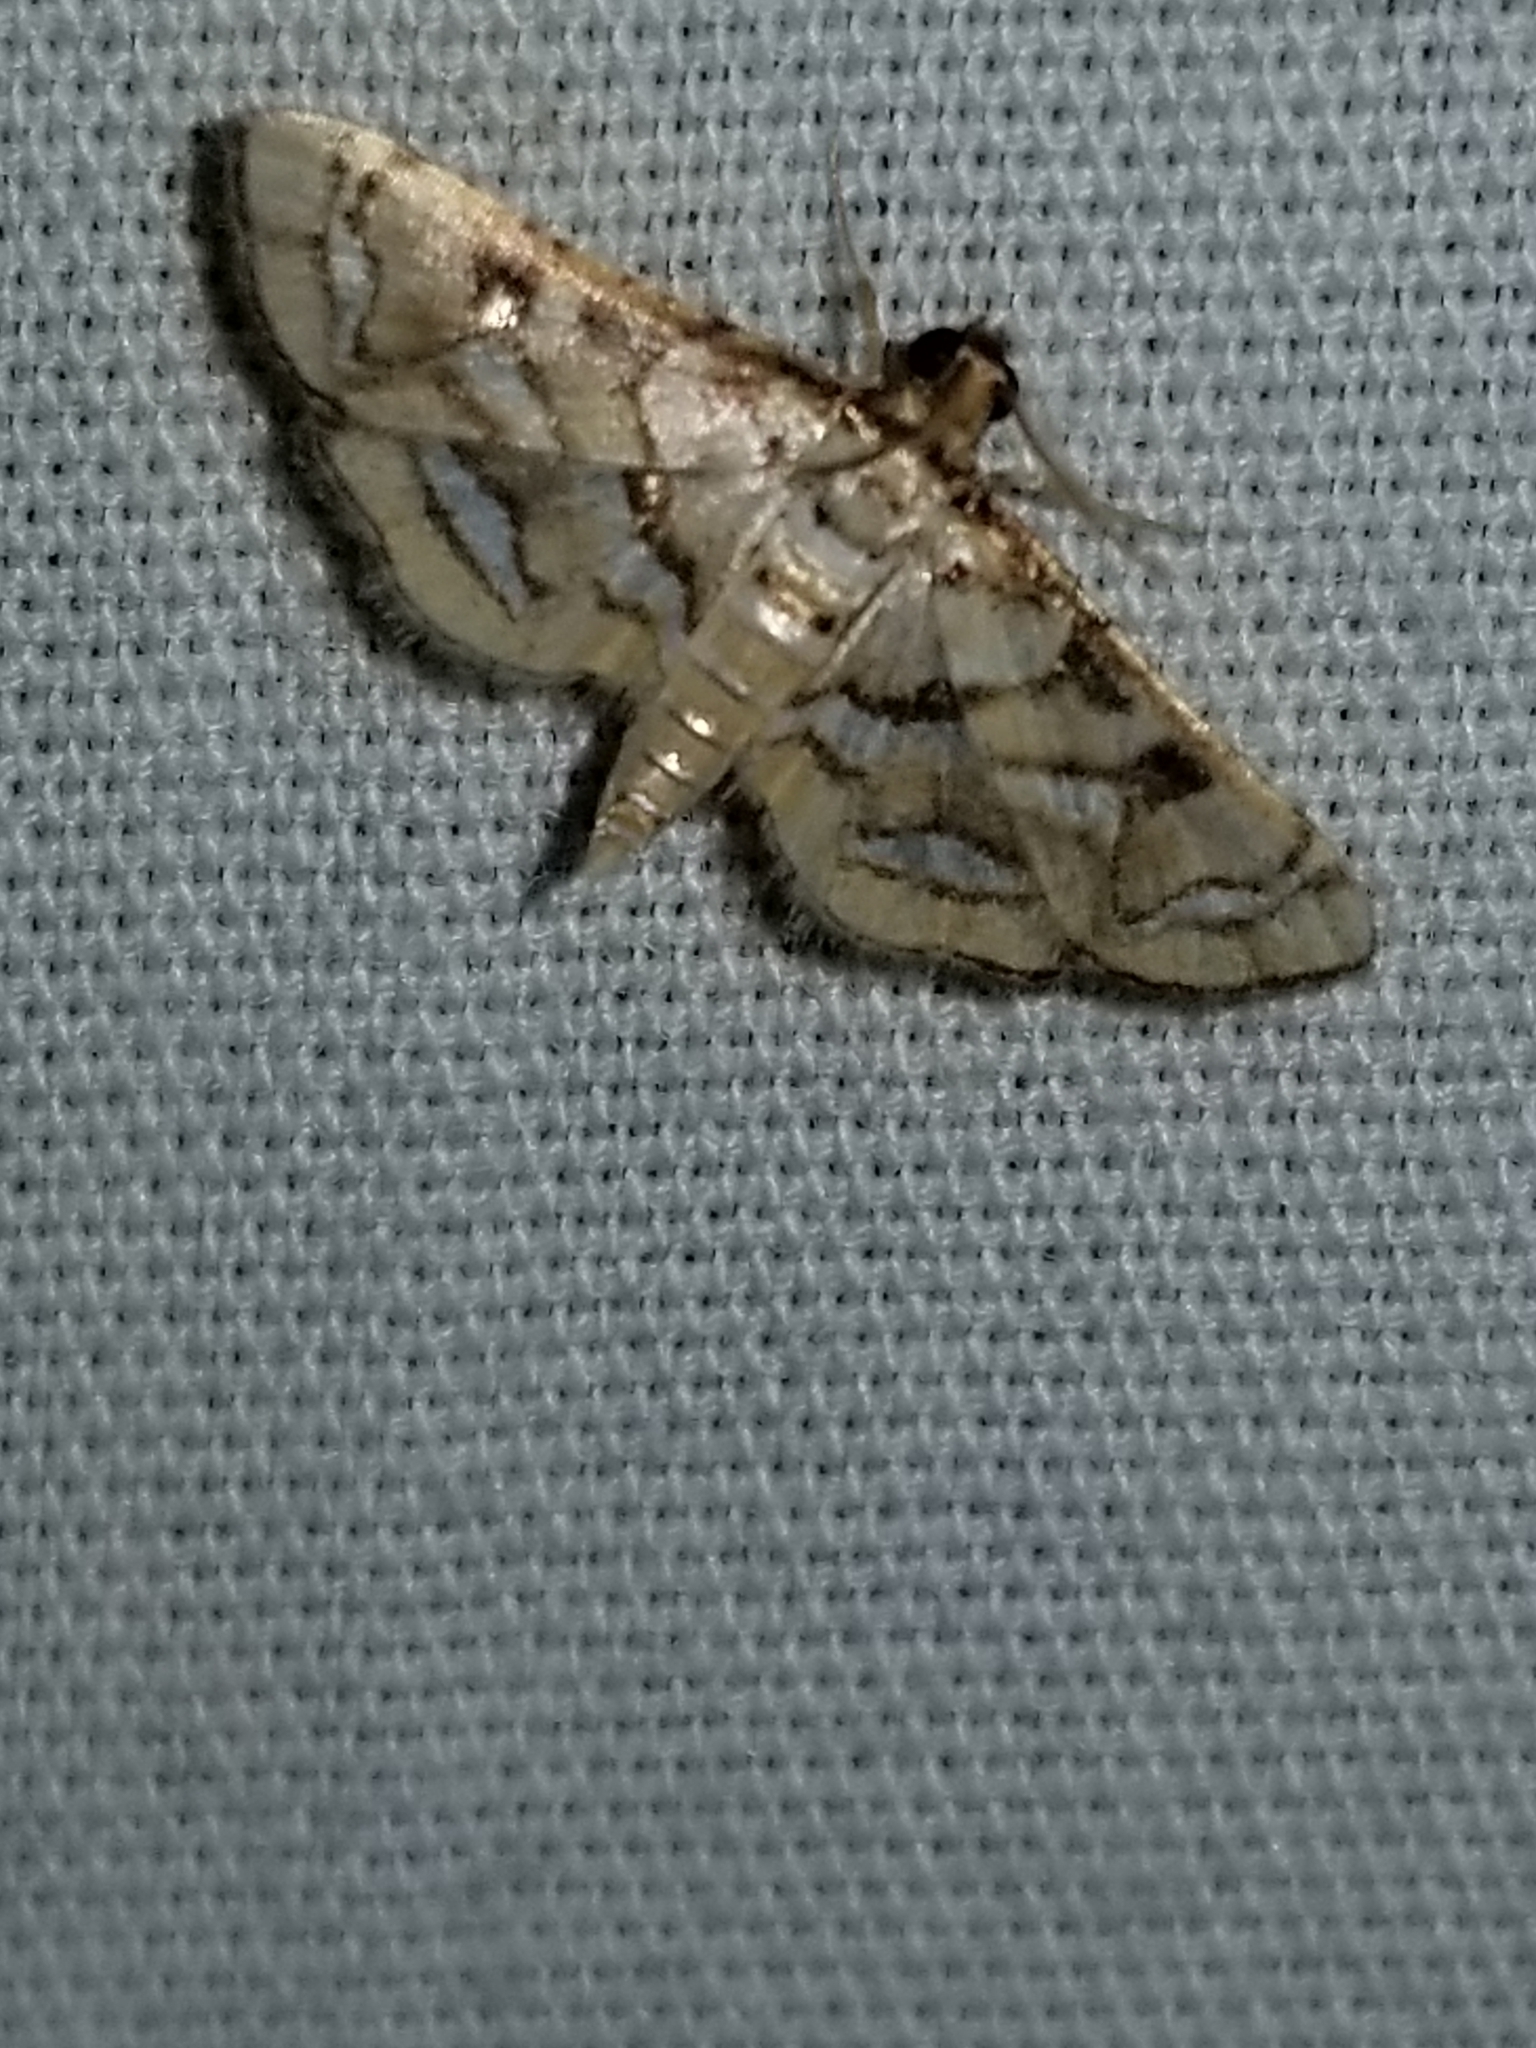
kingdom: Animalia
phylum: Arthropoda
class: Insecta
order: Lepidoptera
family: Crambidae
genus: Hileithia
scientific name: Hileithia magualis
